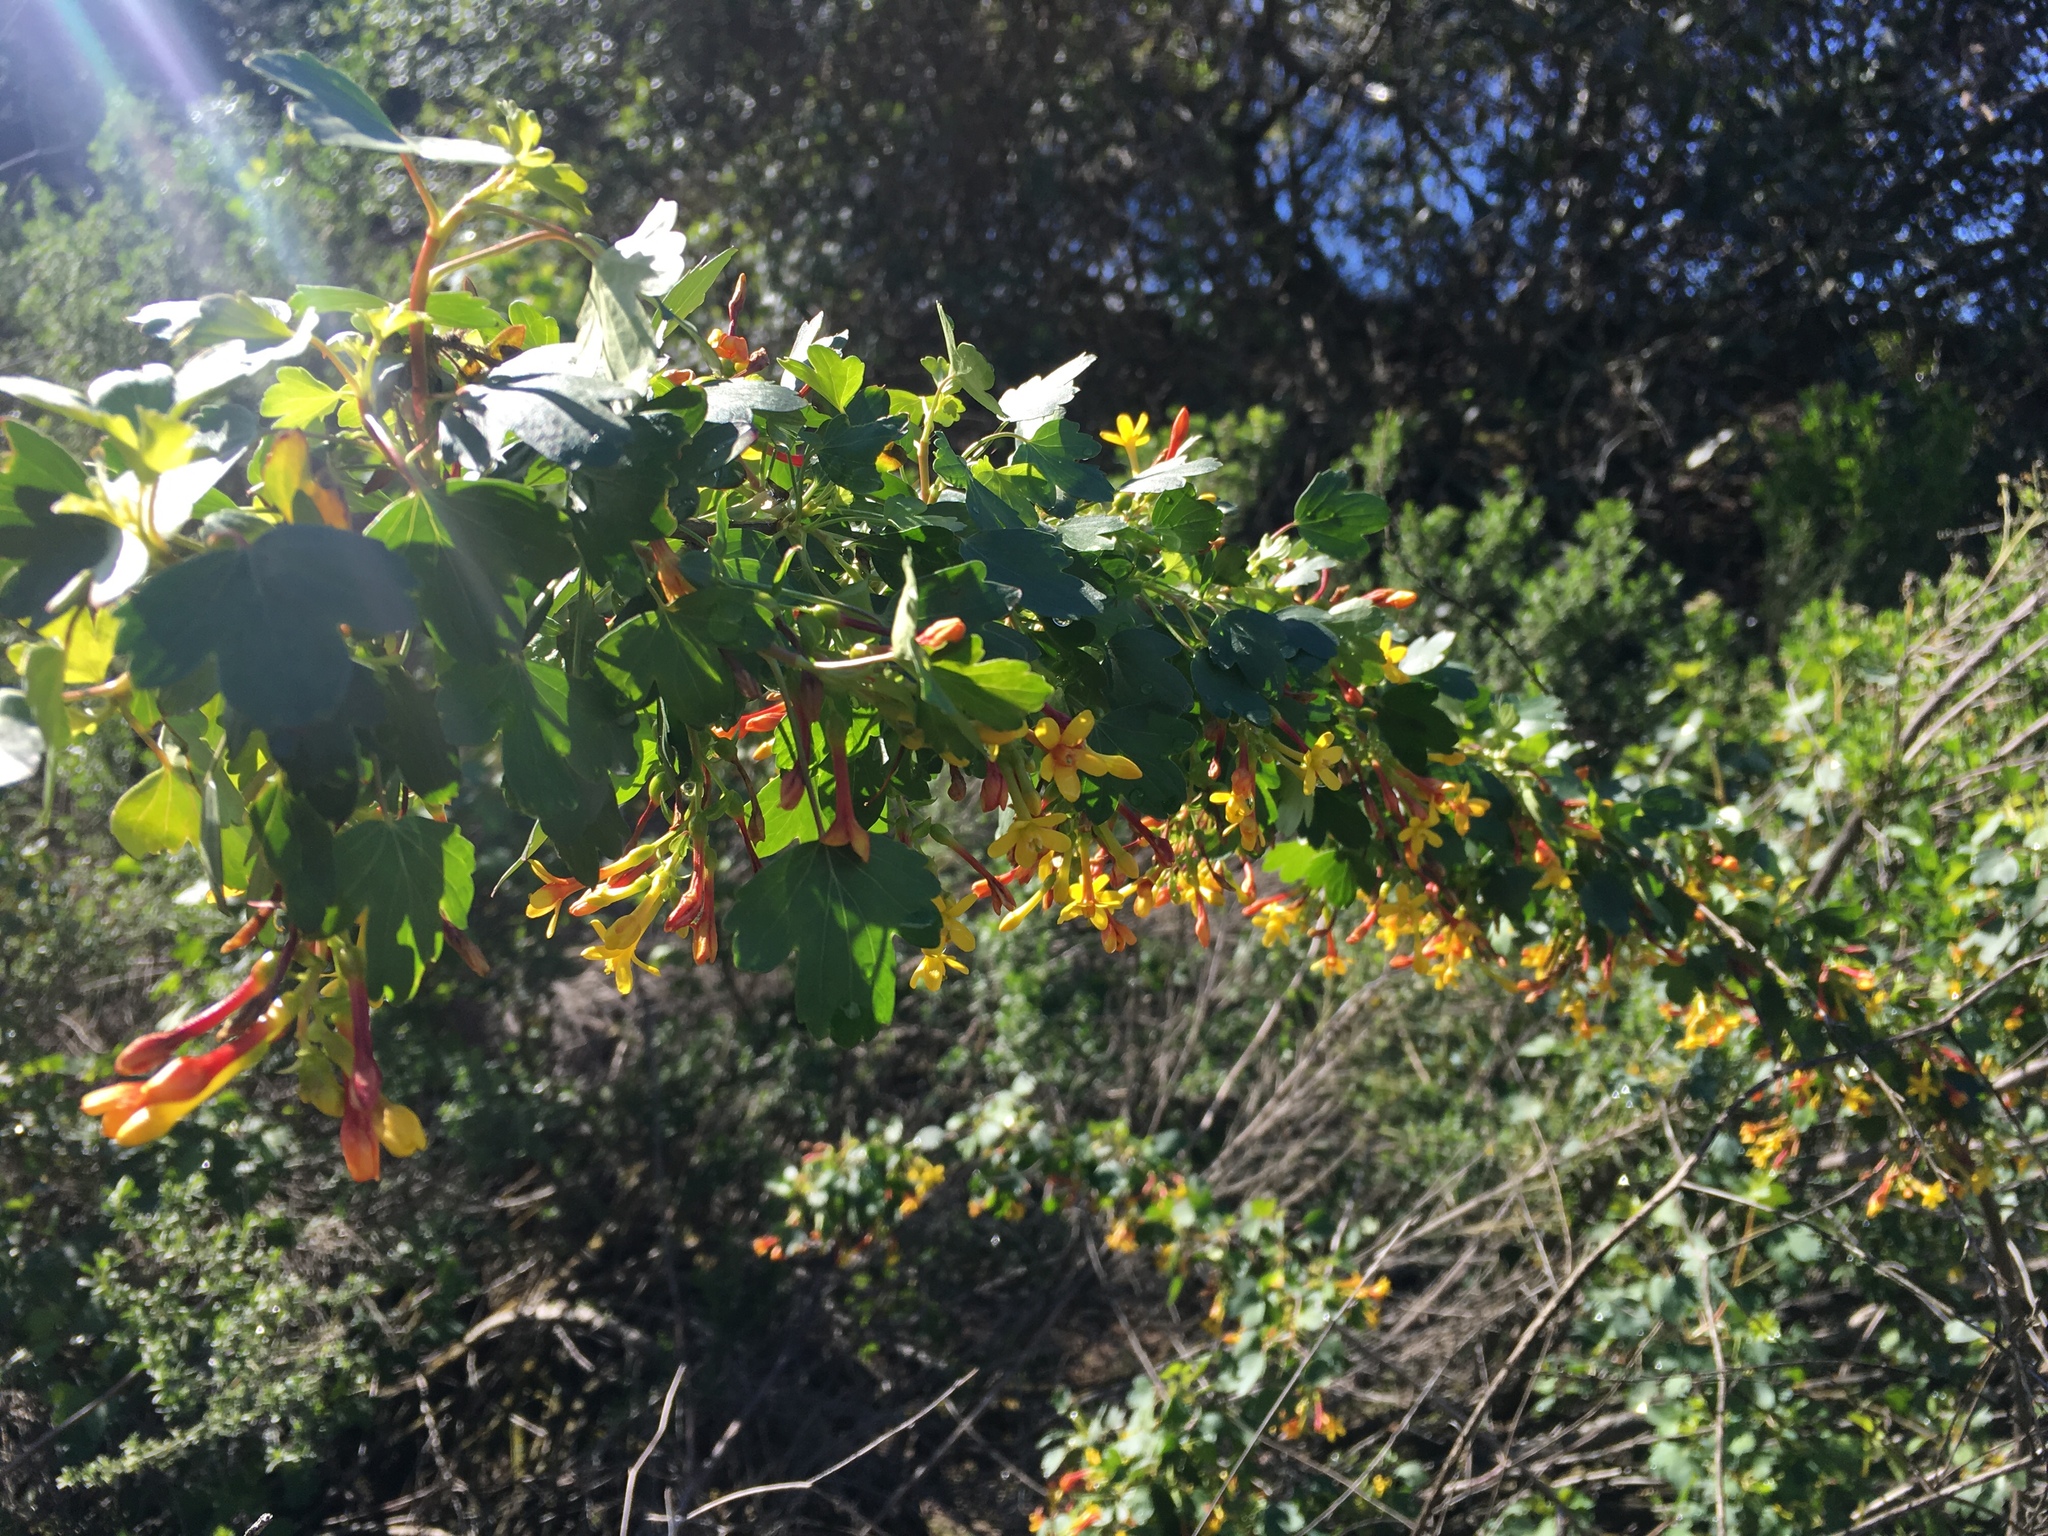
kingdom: Plantae
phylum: Tracheophyta
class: Magnoliopsida
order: Saxifragales
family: Grossulariaceae
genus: Ribes
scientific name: Ribes aureum
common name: Golden currant
